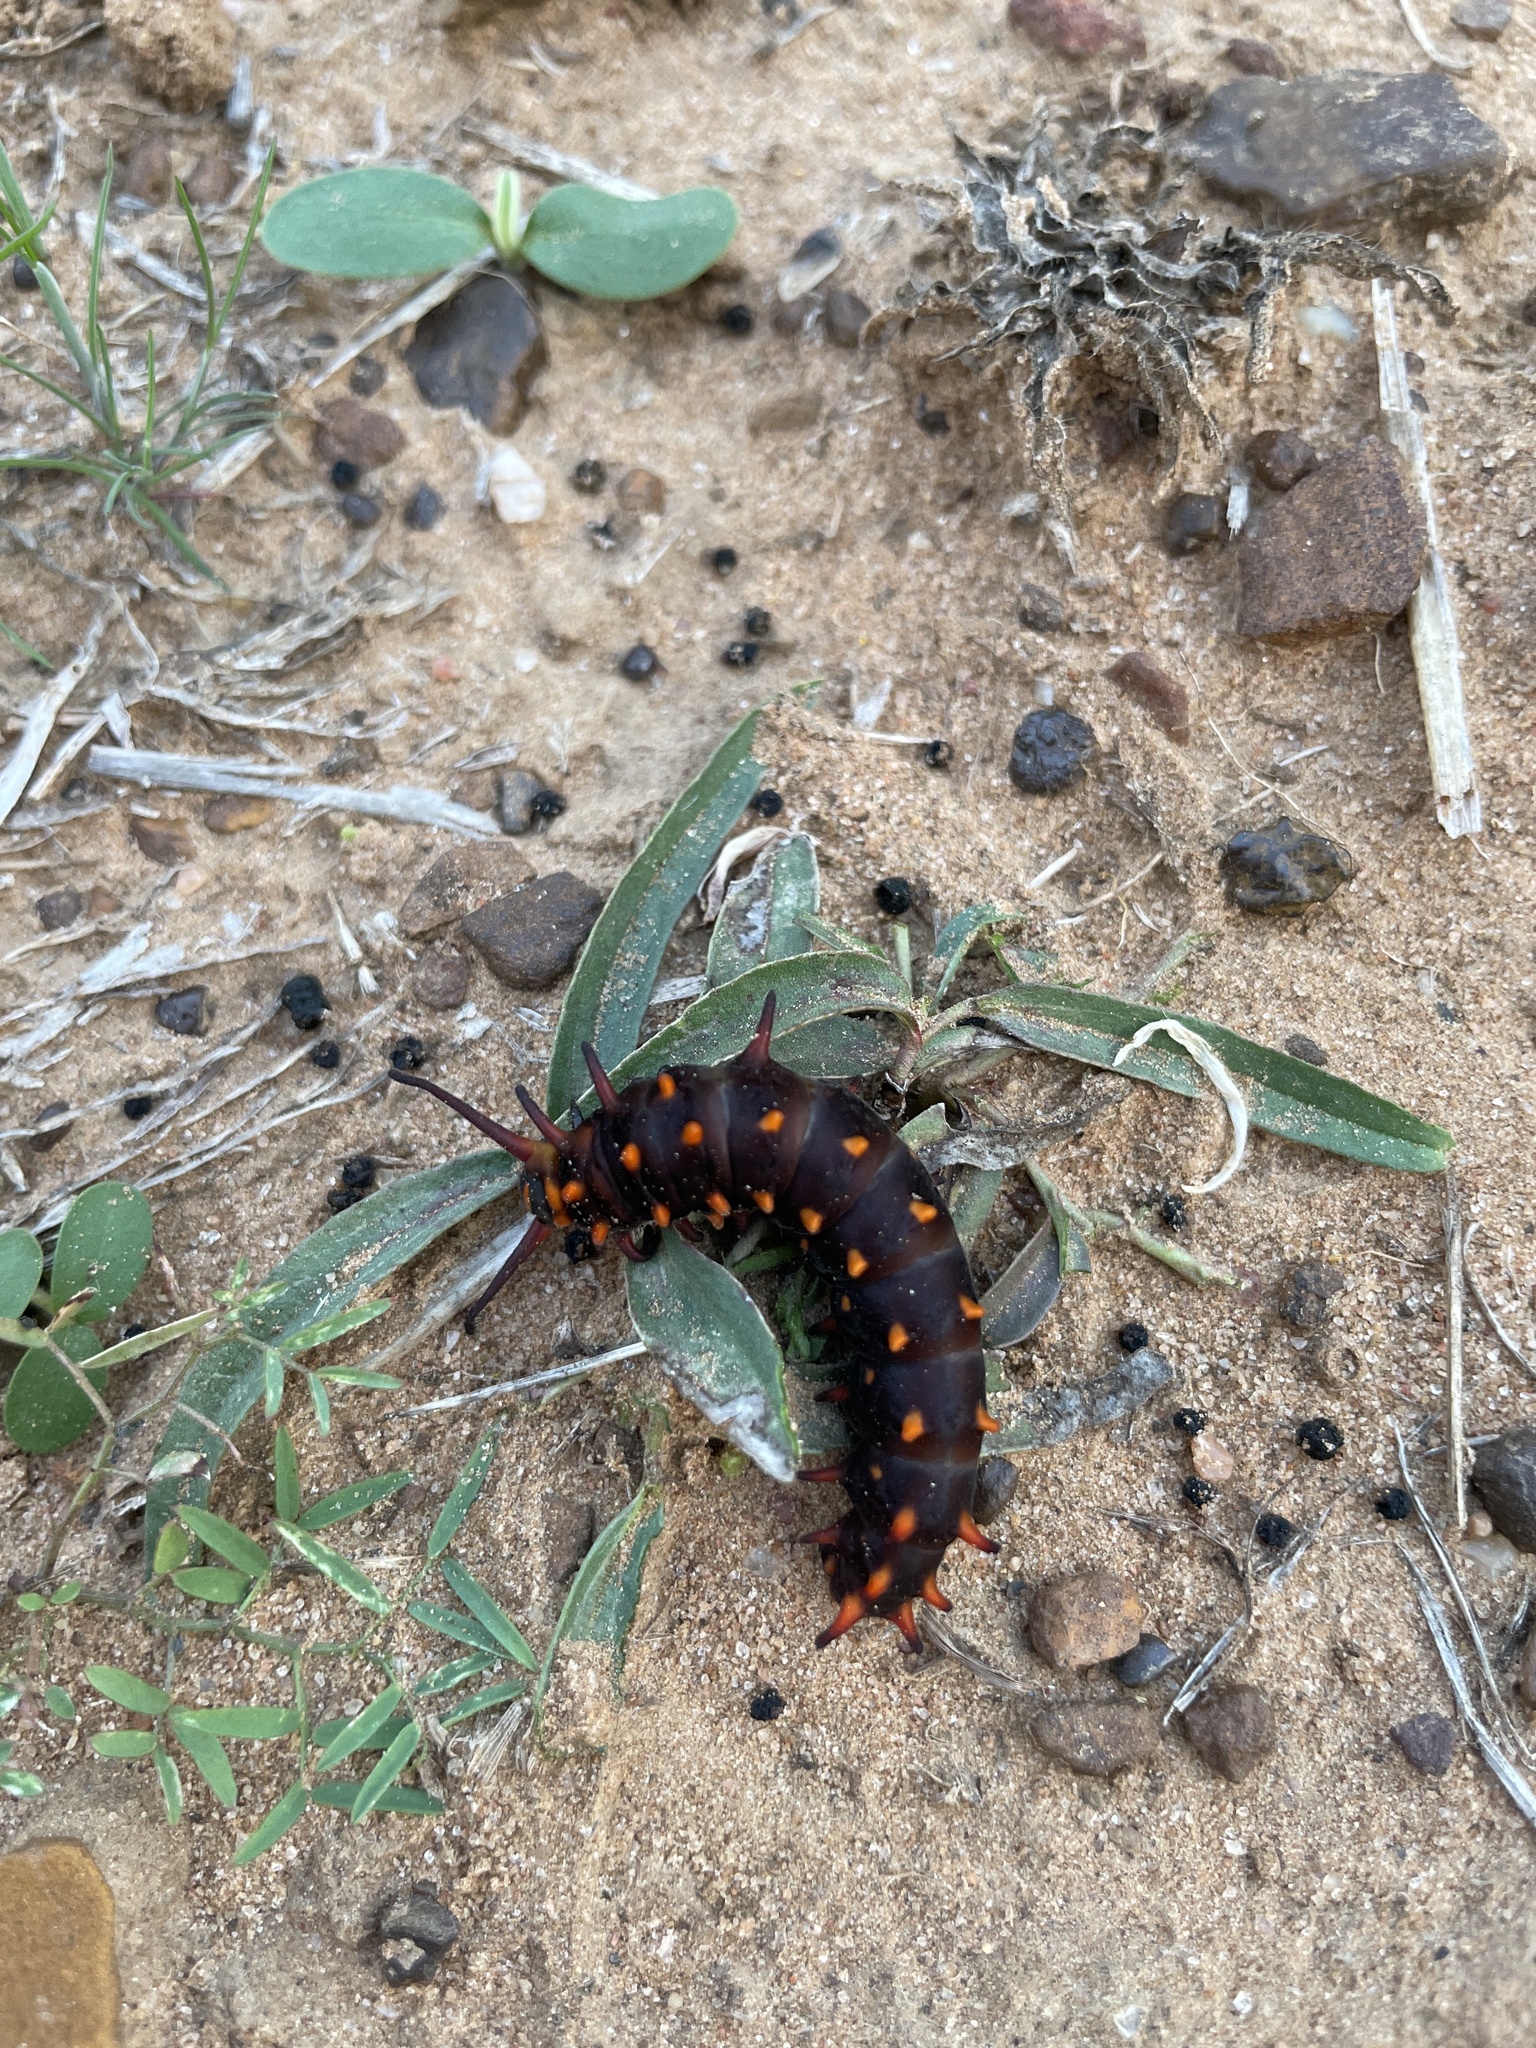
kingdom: Animalia
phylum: Arthropoda
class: Insecta
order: Lepidoptera
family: Papilionidae
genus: Battus
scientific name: Battus philenor
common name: Pipevine swallowtail
